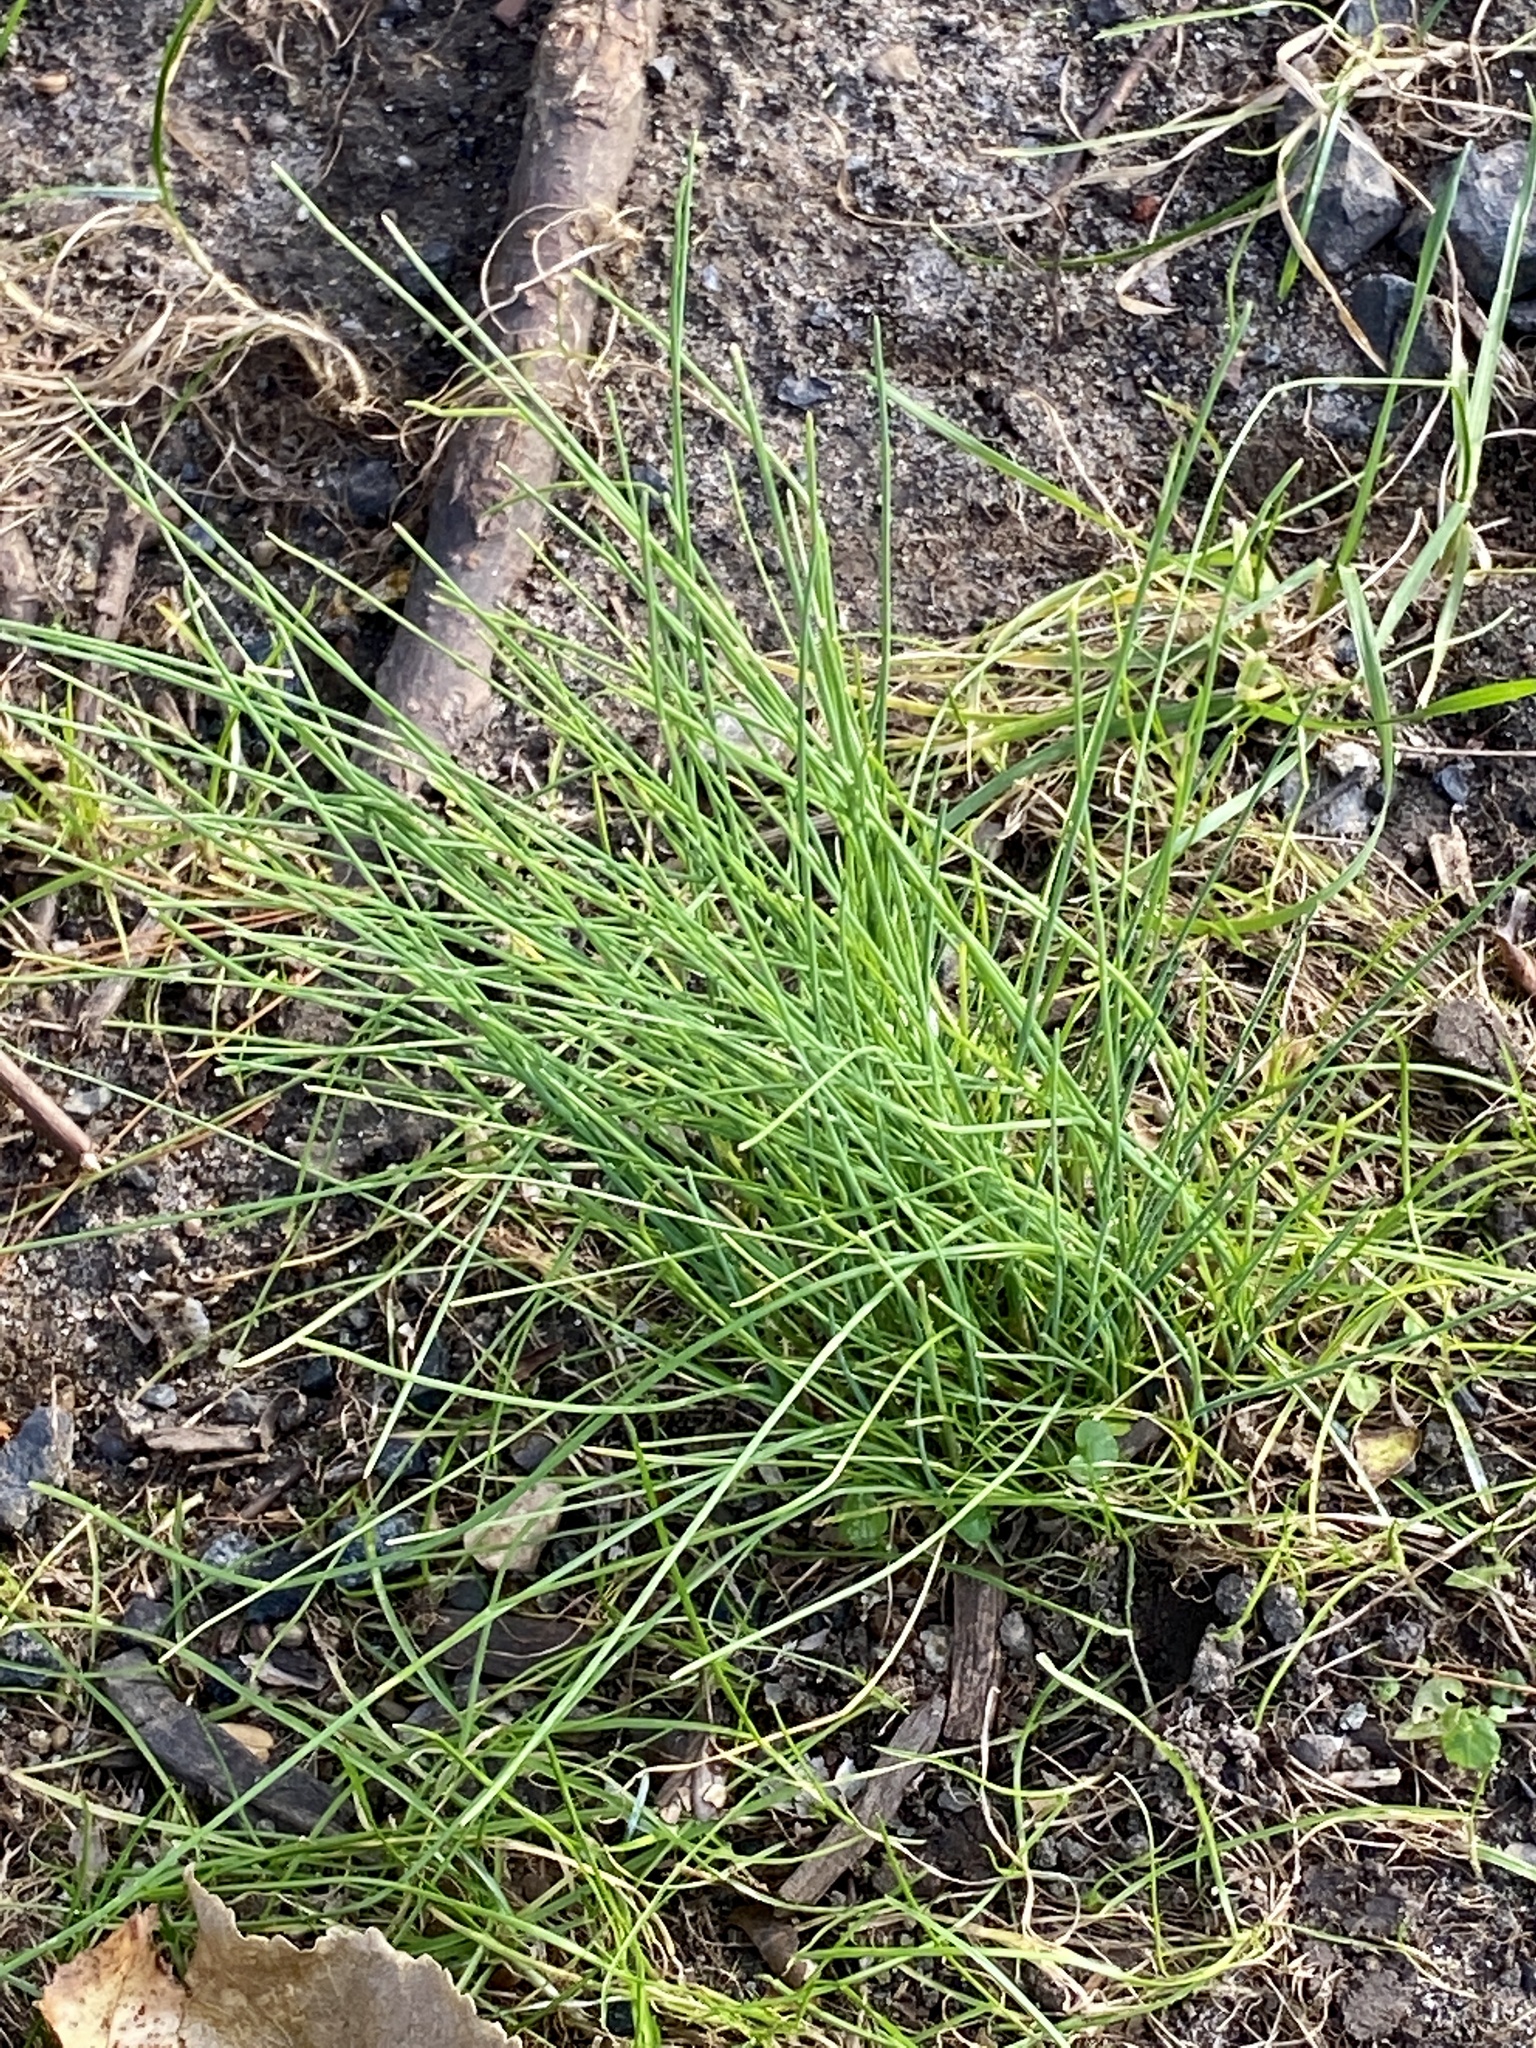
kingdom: Plantae
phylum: Tracheophyta
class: Liliopsida
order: Asparagales
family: Amaryllidaceae
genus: Allium
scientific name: Allium vineale
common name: Crow garlic
